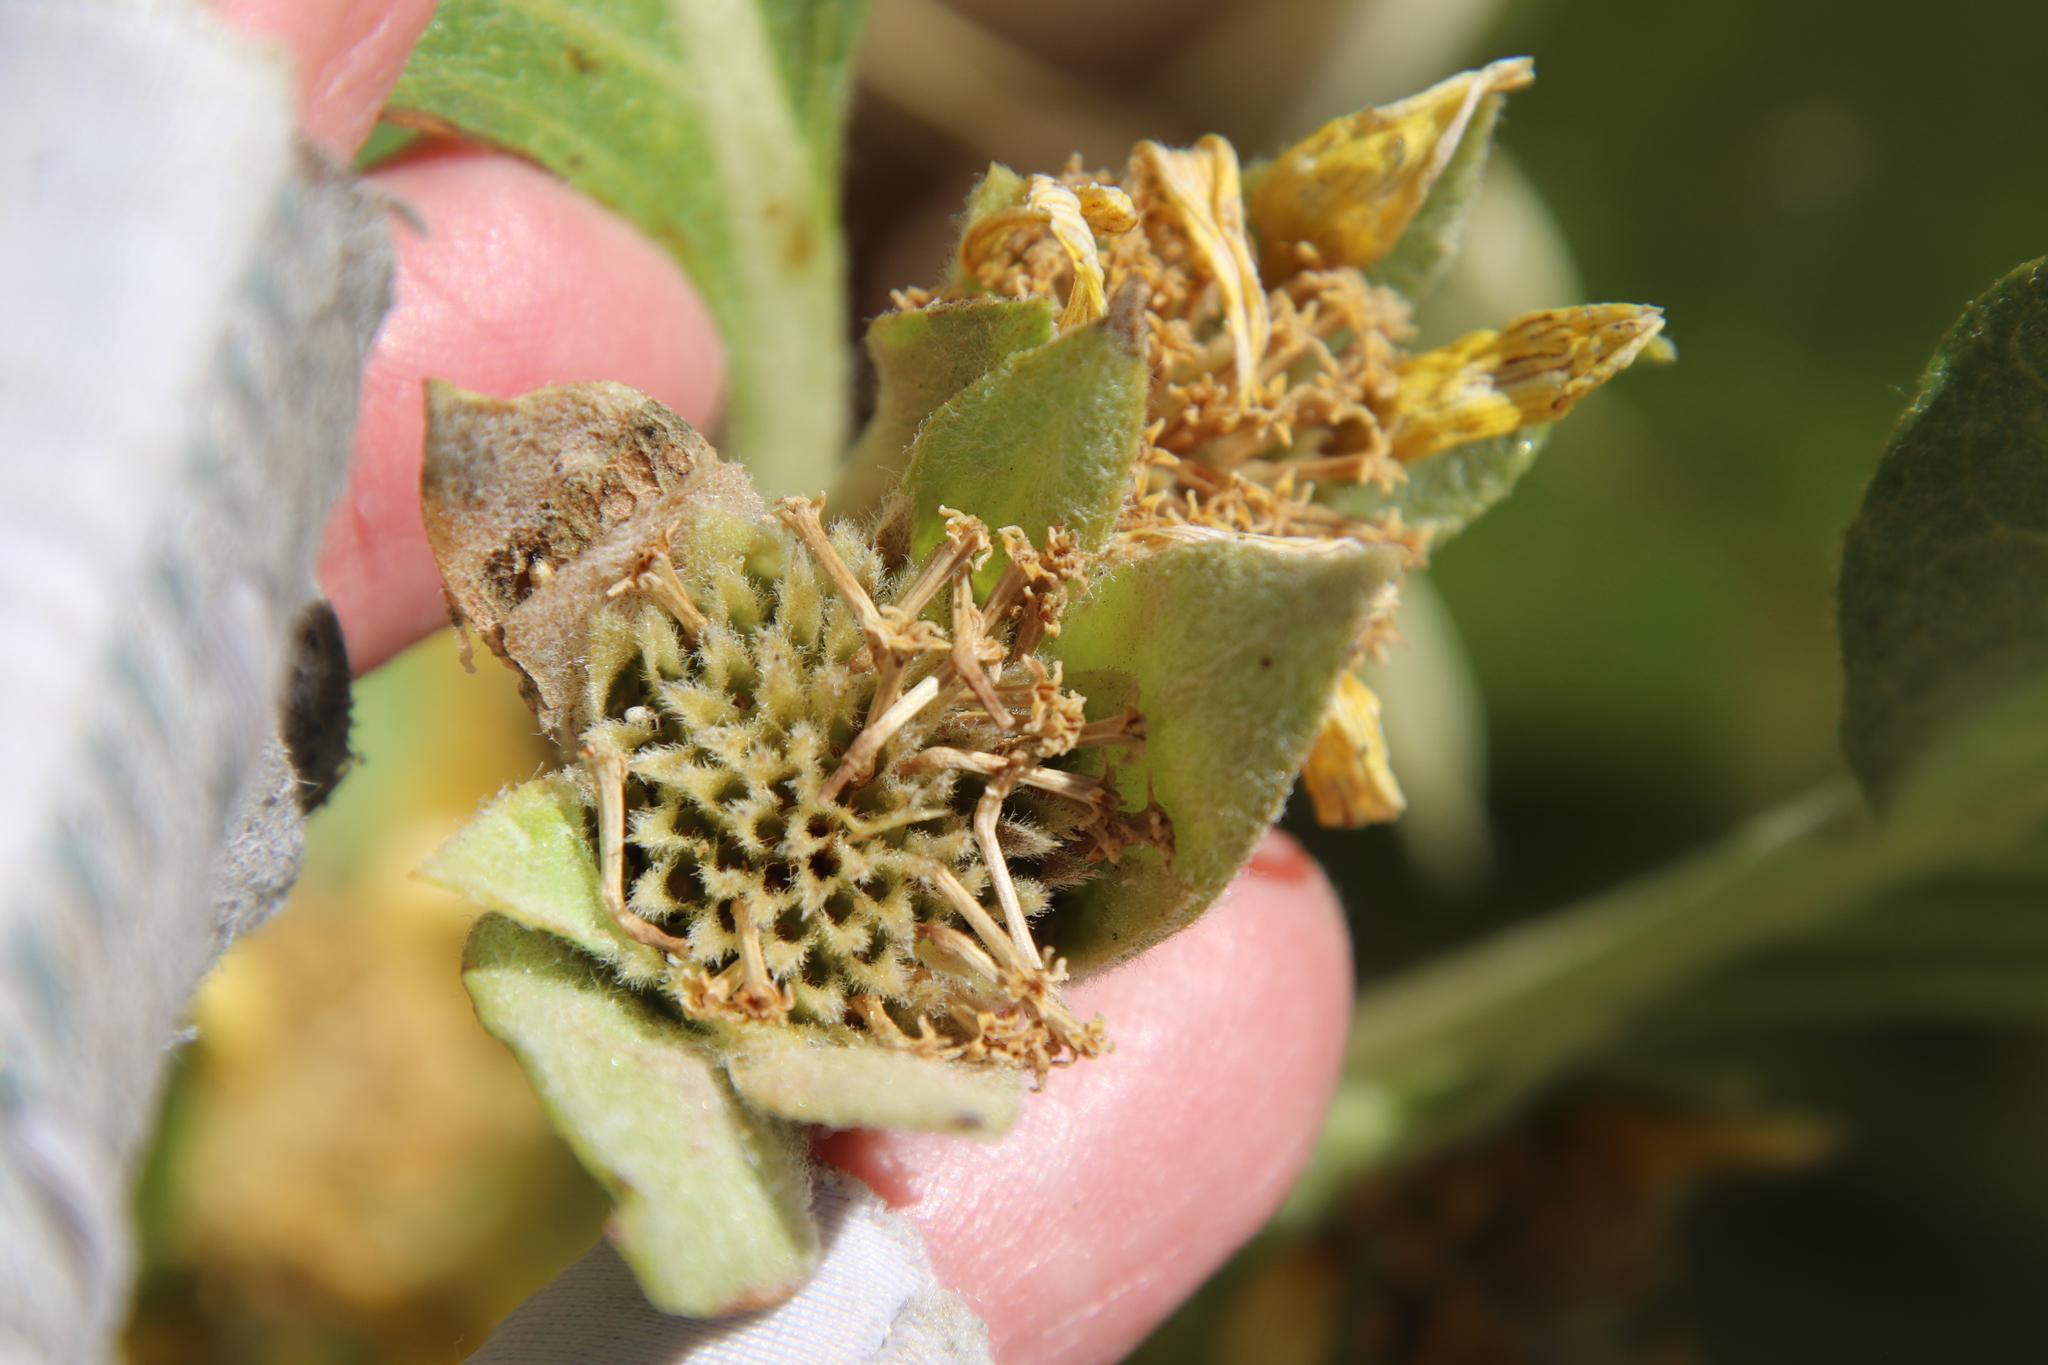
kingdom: Plantae
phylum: Tracheophyta
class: Magnoliopsida
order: Asterales
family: Asteraceae
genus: Agnorhiza
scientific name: Agnorhiza ovata
